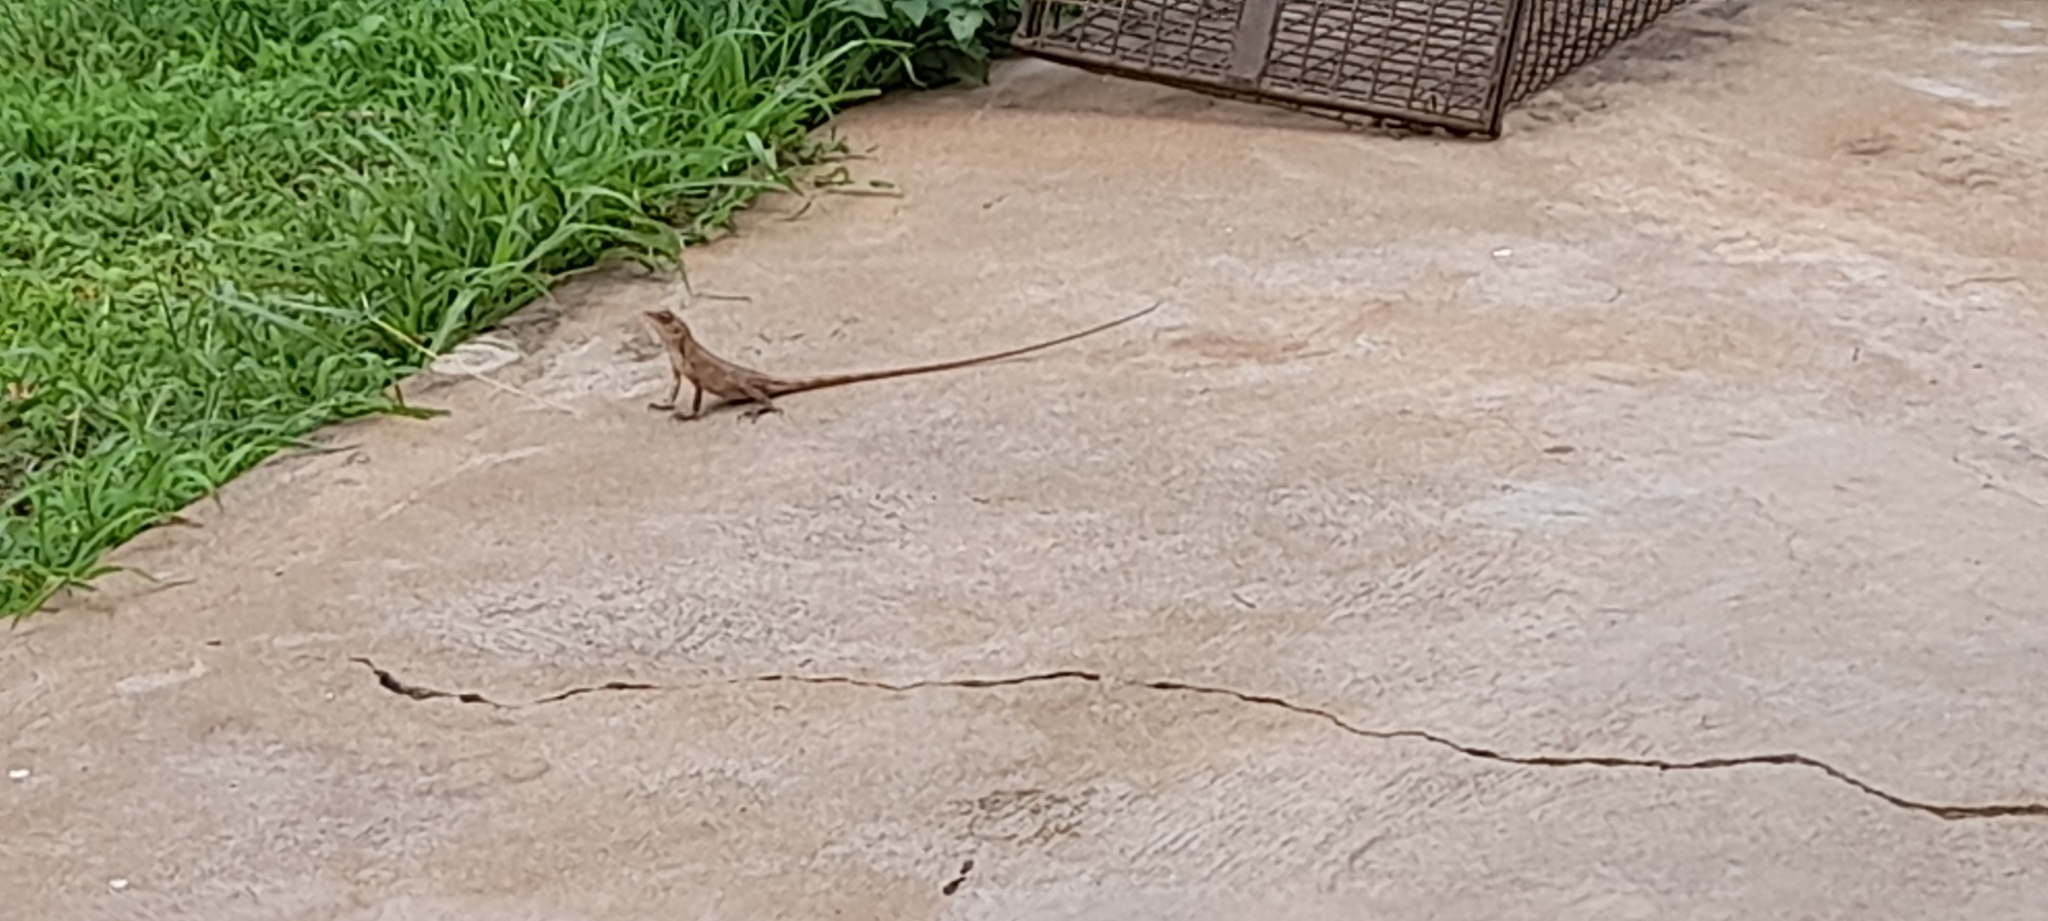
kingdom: Animalia
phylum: Chordata
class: Squamata
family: Agamidae
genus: Calotes
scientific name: Calotes versicolor
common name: Oriental garden lizard
